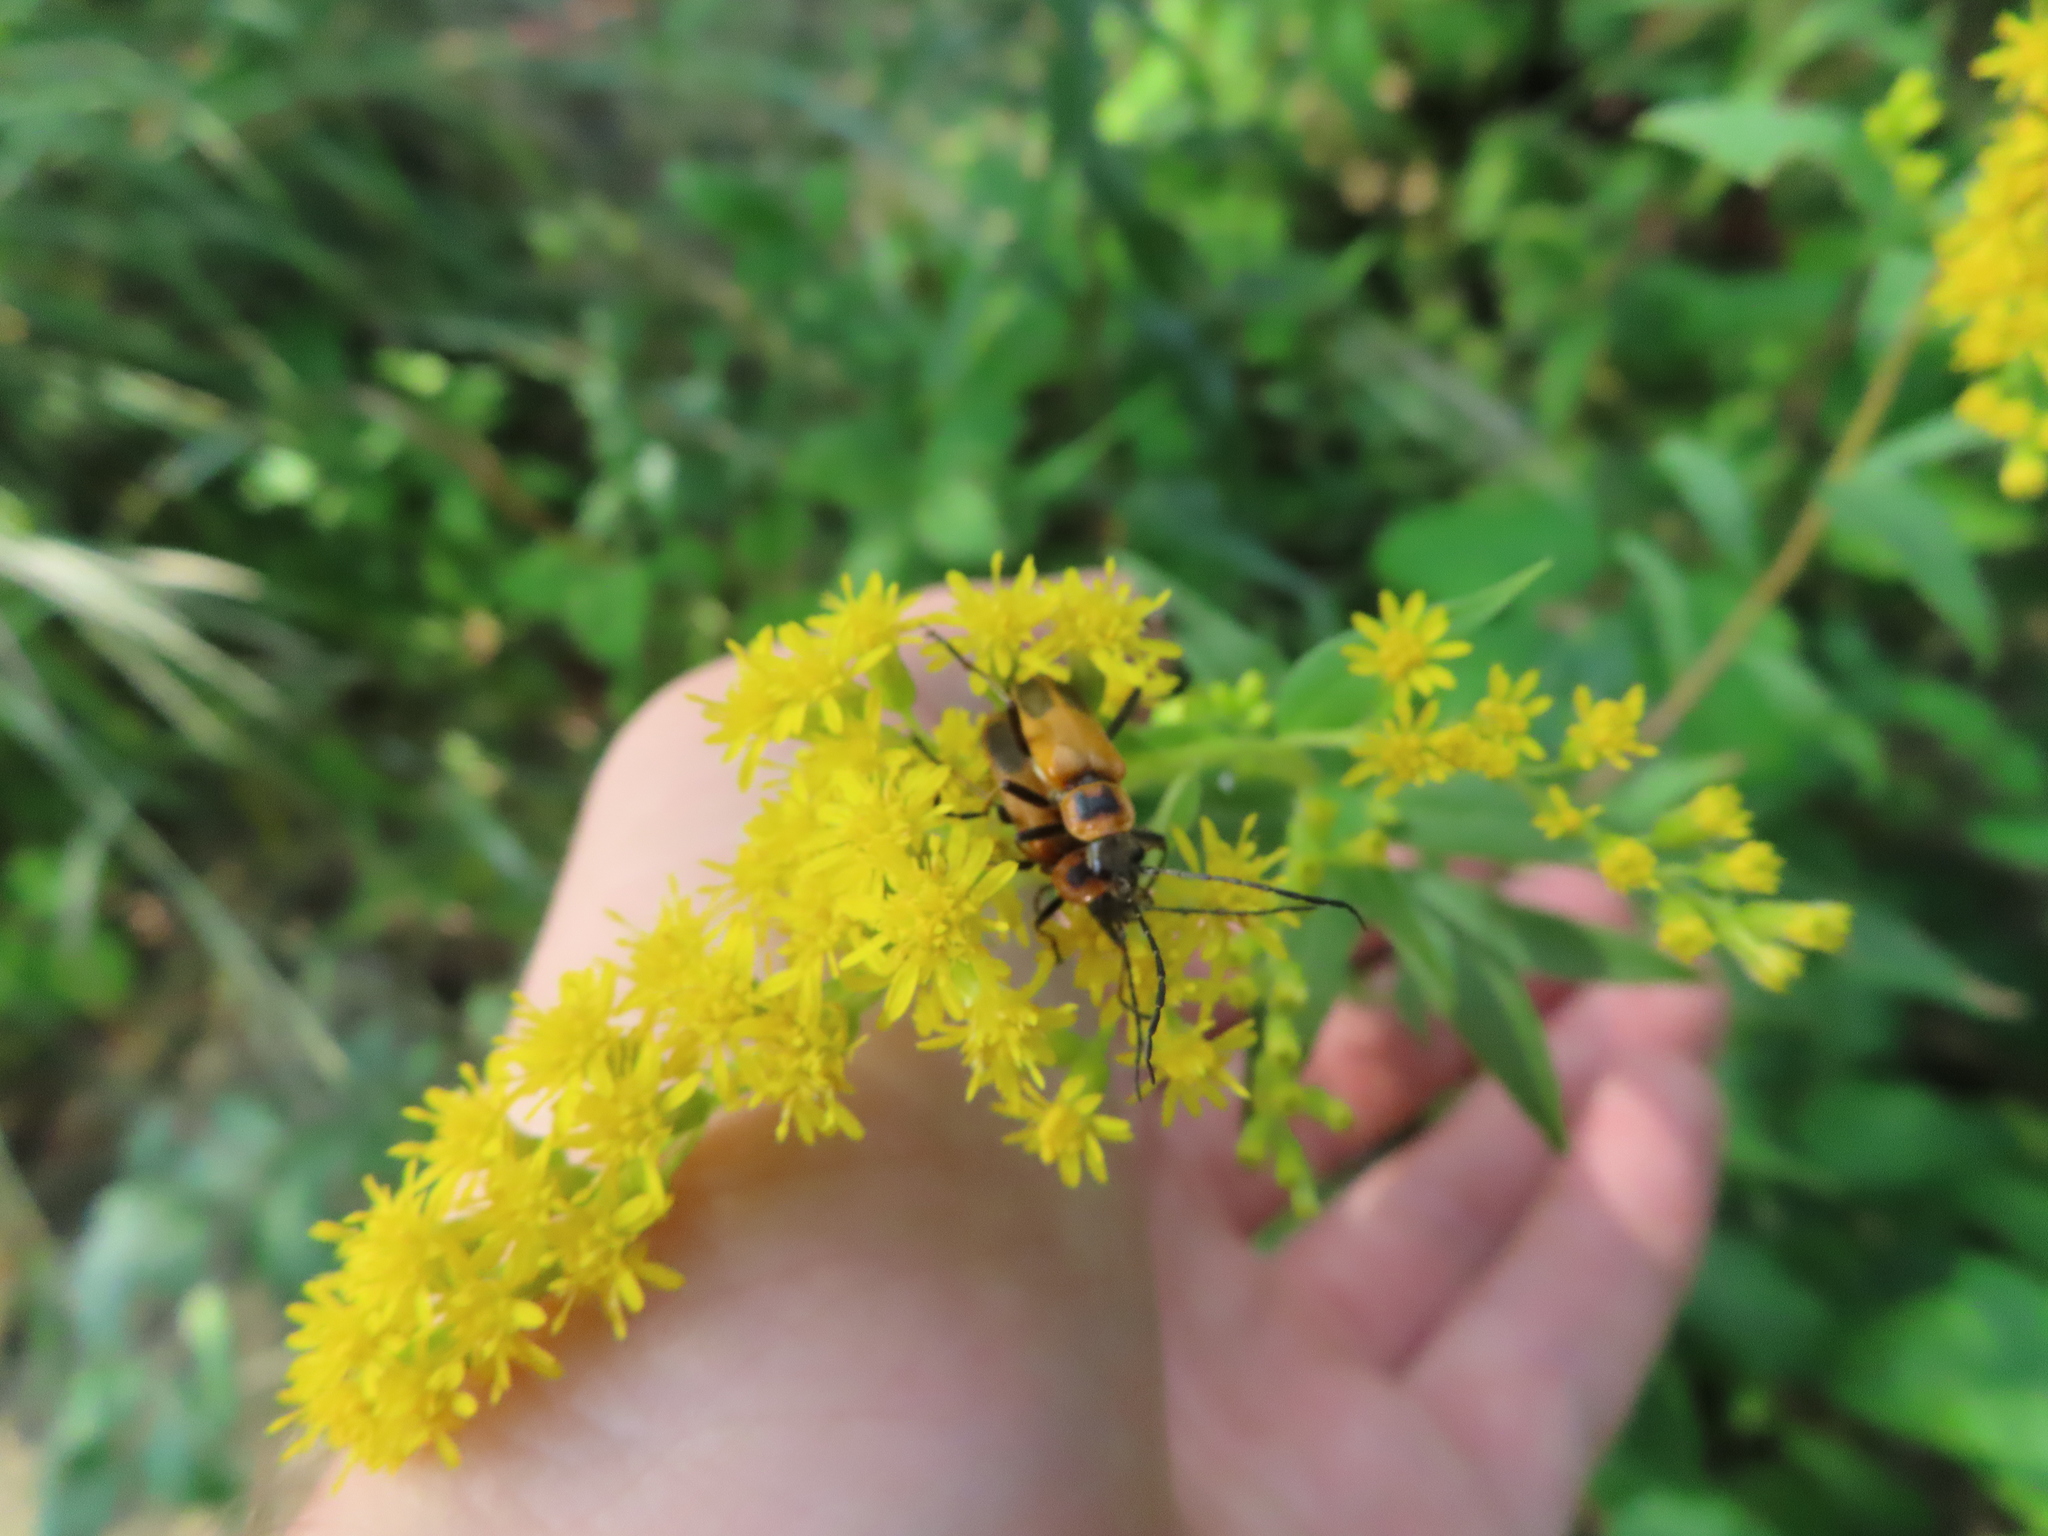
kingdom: Animalia
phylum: Arthropoda
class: Insecta
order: Coleoptera
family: Cantharidae
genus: Chauliognathus
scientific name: Chauliognathus pensylvanicus
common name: Goldenrod soldier beetle
